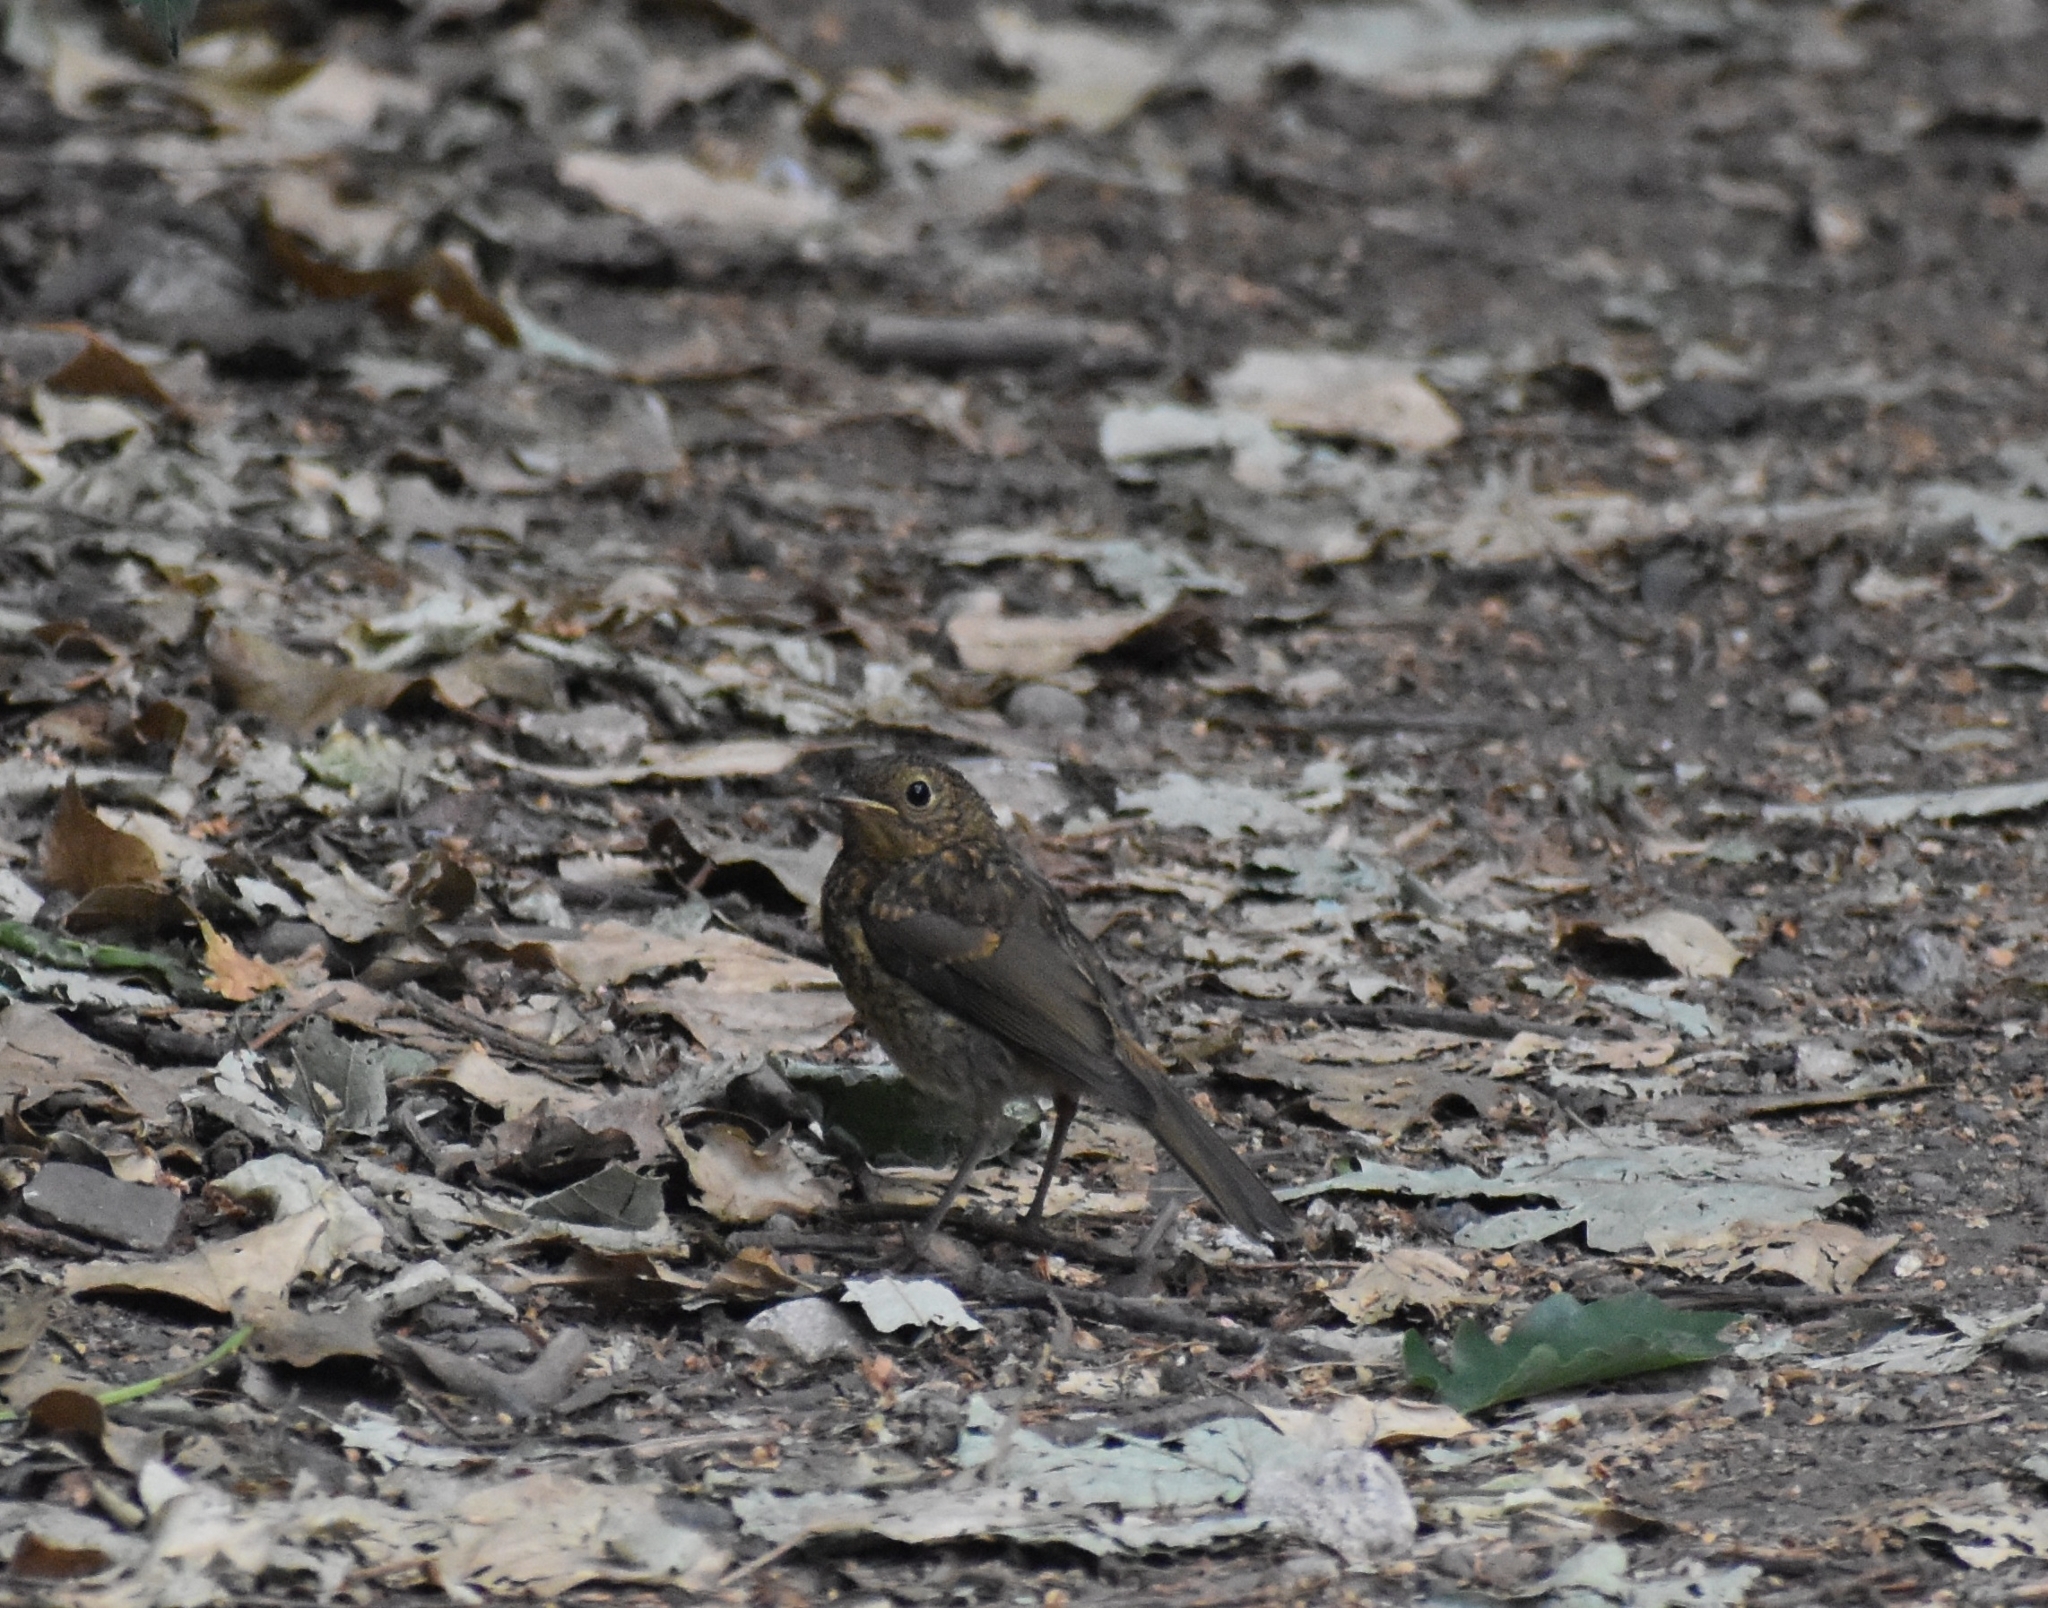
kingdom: Animalia
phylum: Chordata
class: Aves
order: Passeriformes
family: Muscicapidae
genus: Erithacus
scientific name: Erithacus rubecula
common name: European robin
